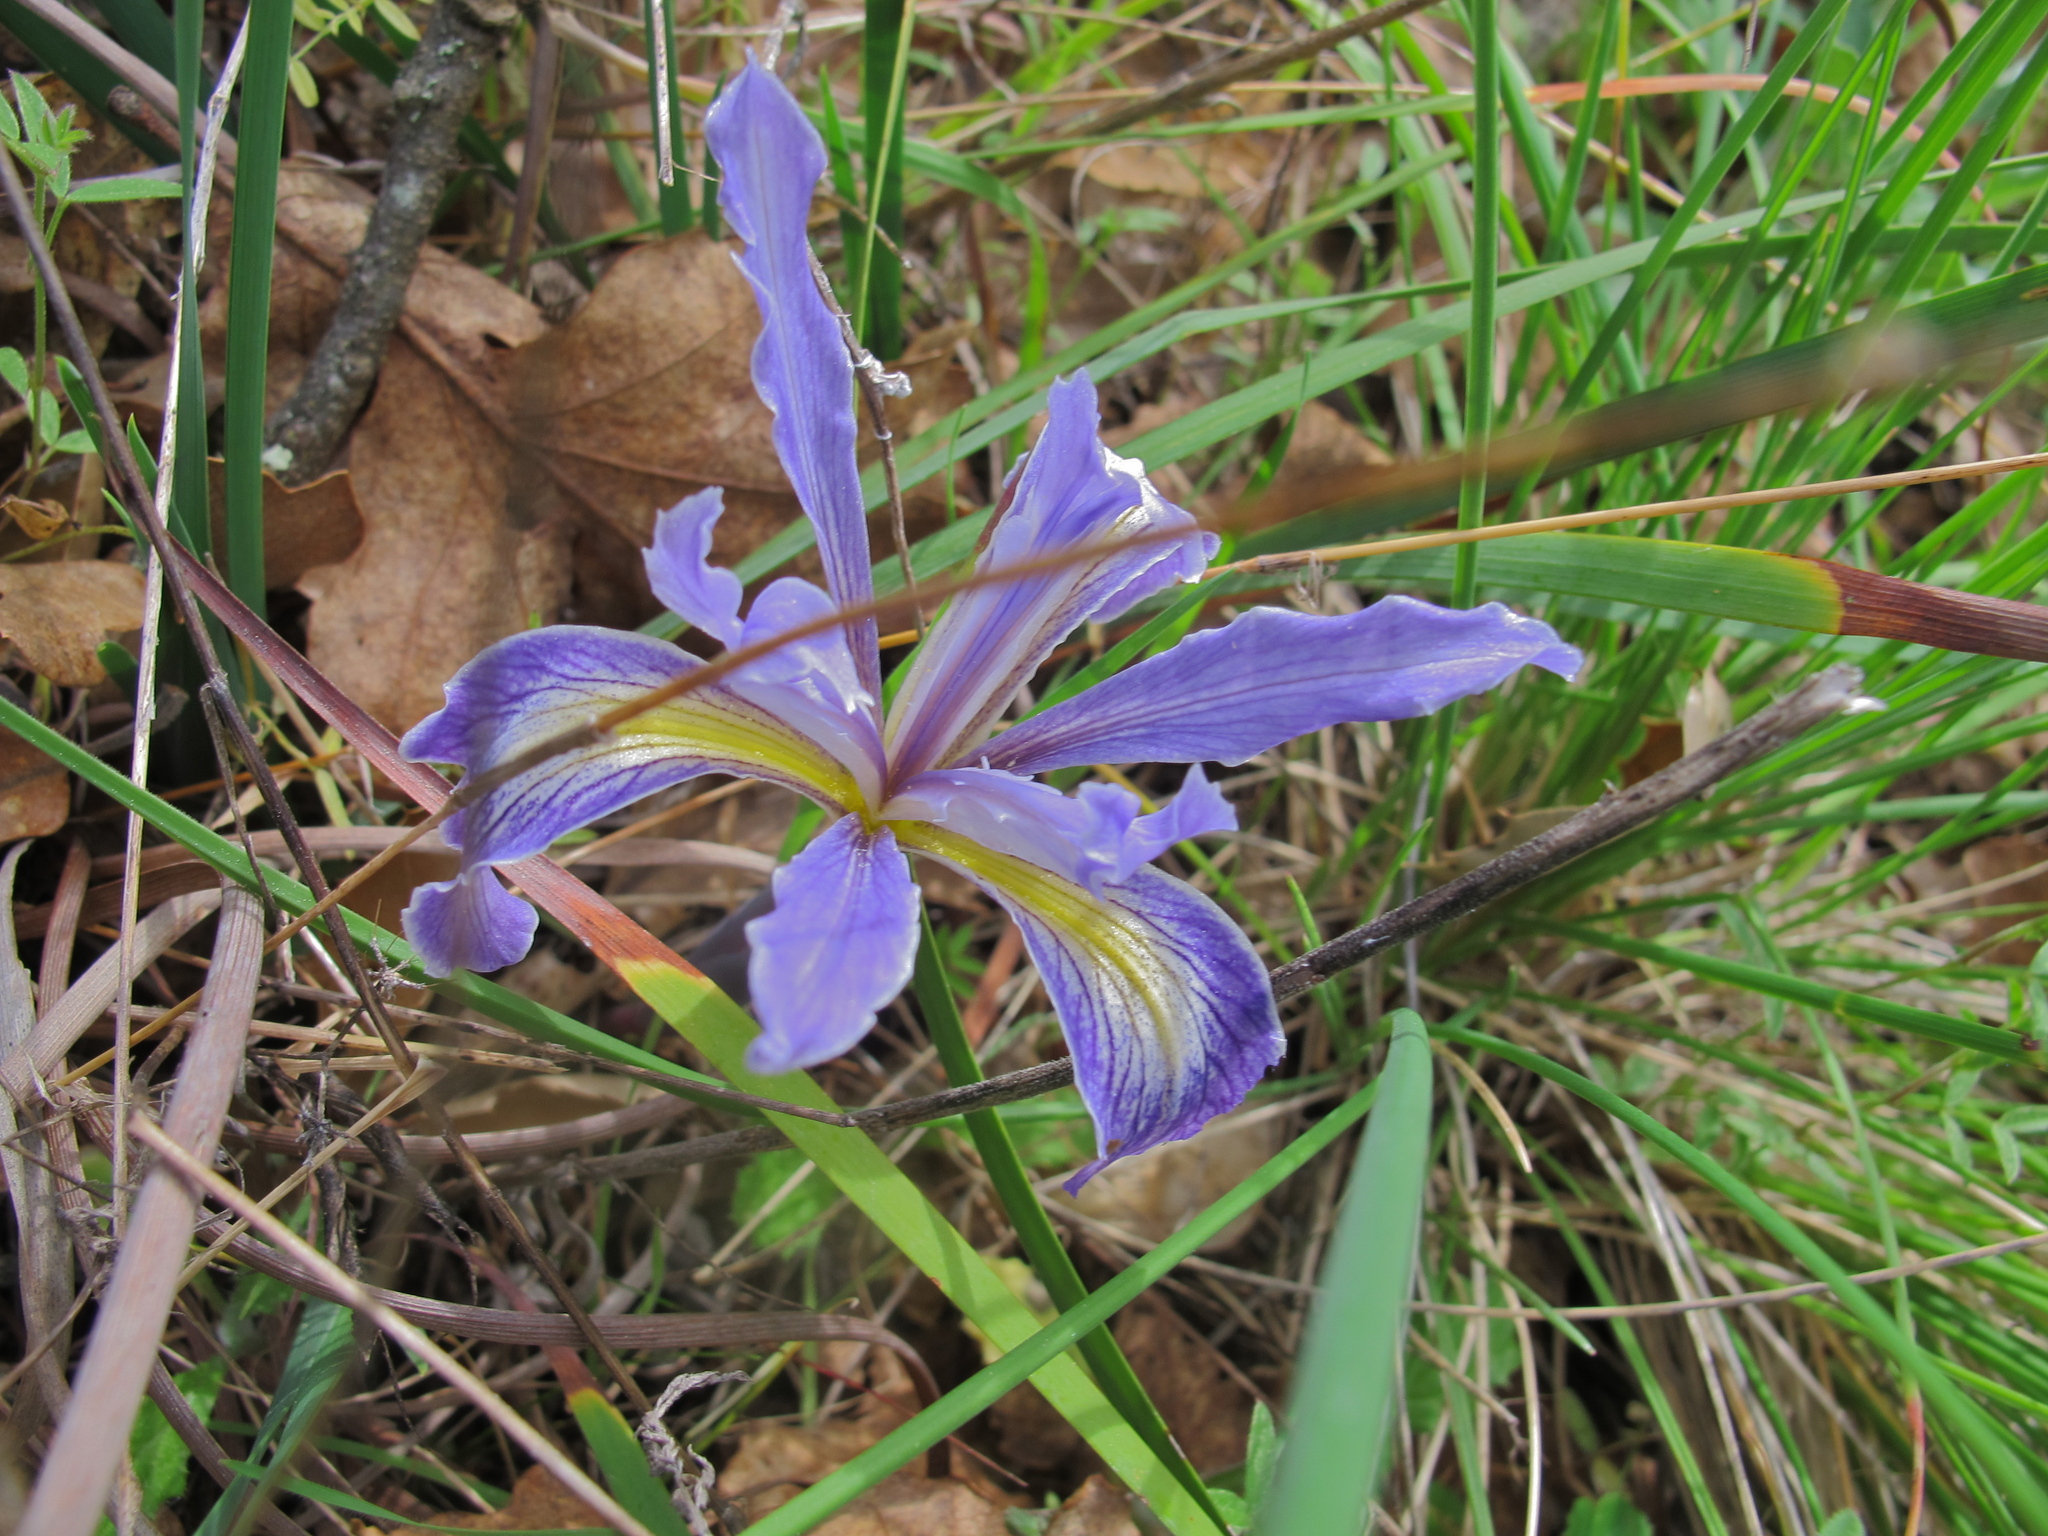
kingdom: Plantae
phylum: Tracheophyta
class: Liliopsida
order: Asparagales
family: Iridaceae
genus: Iris
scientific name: Iris macrosiphon
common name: Ground iris
